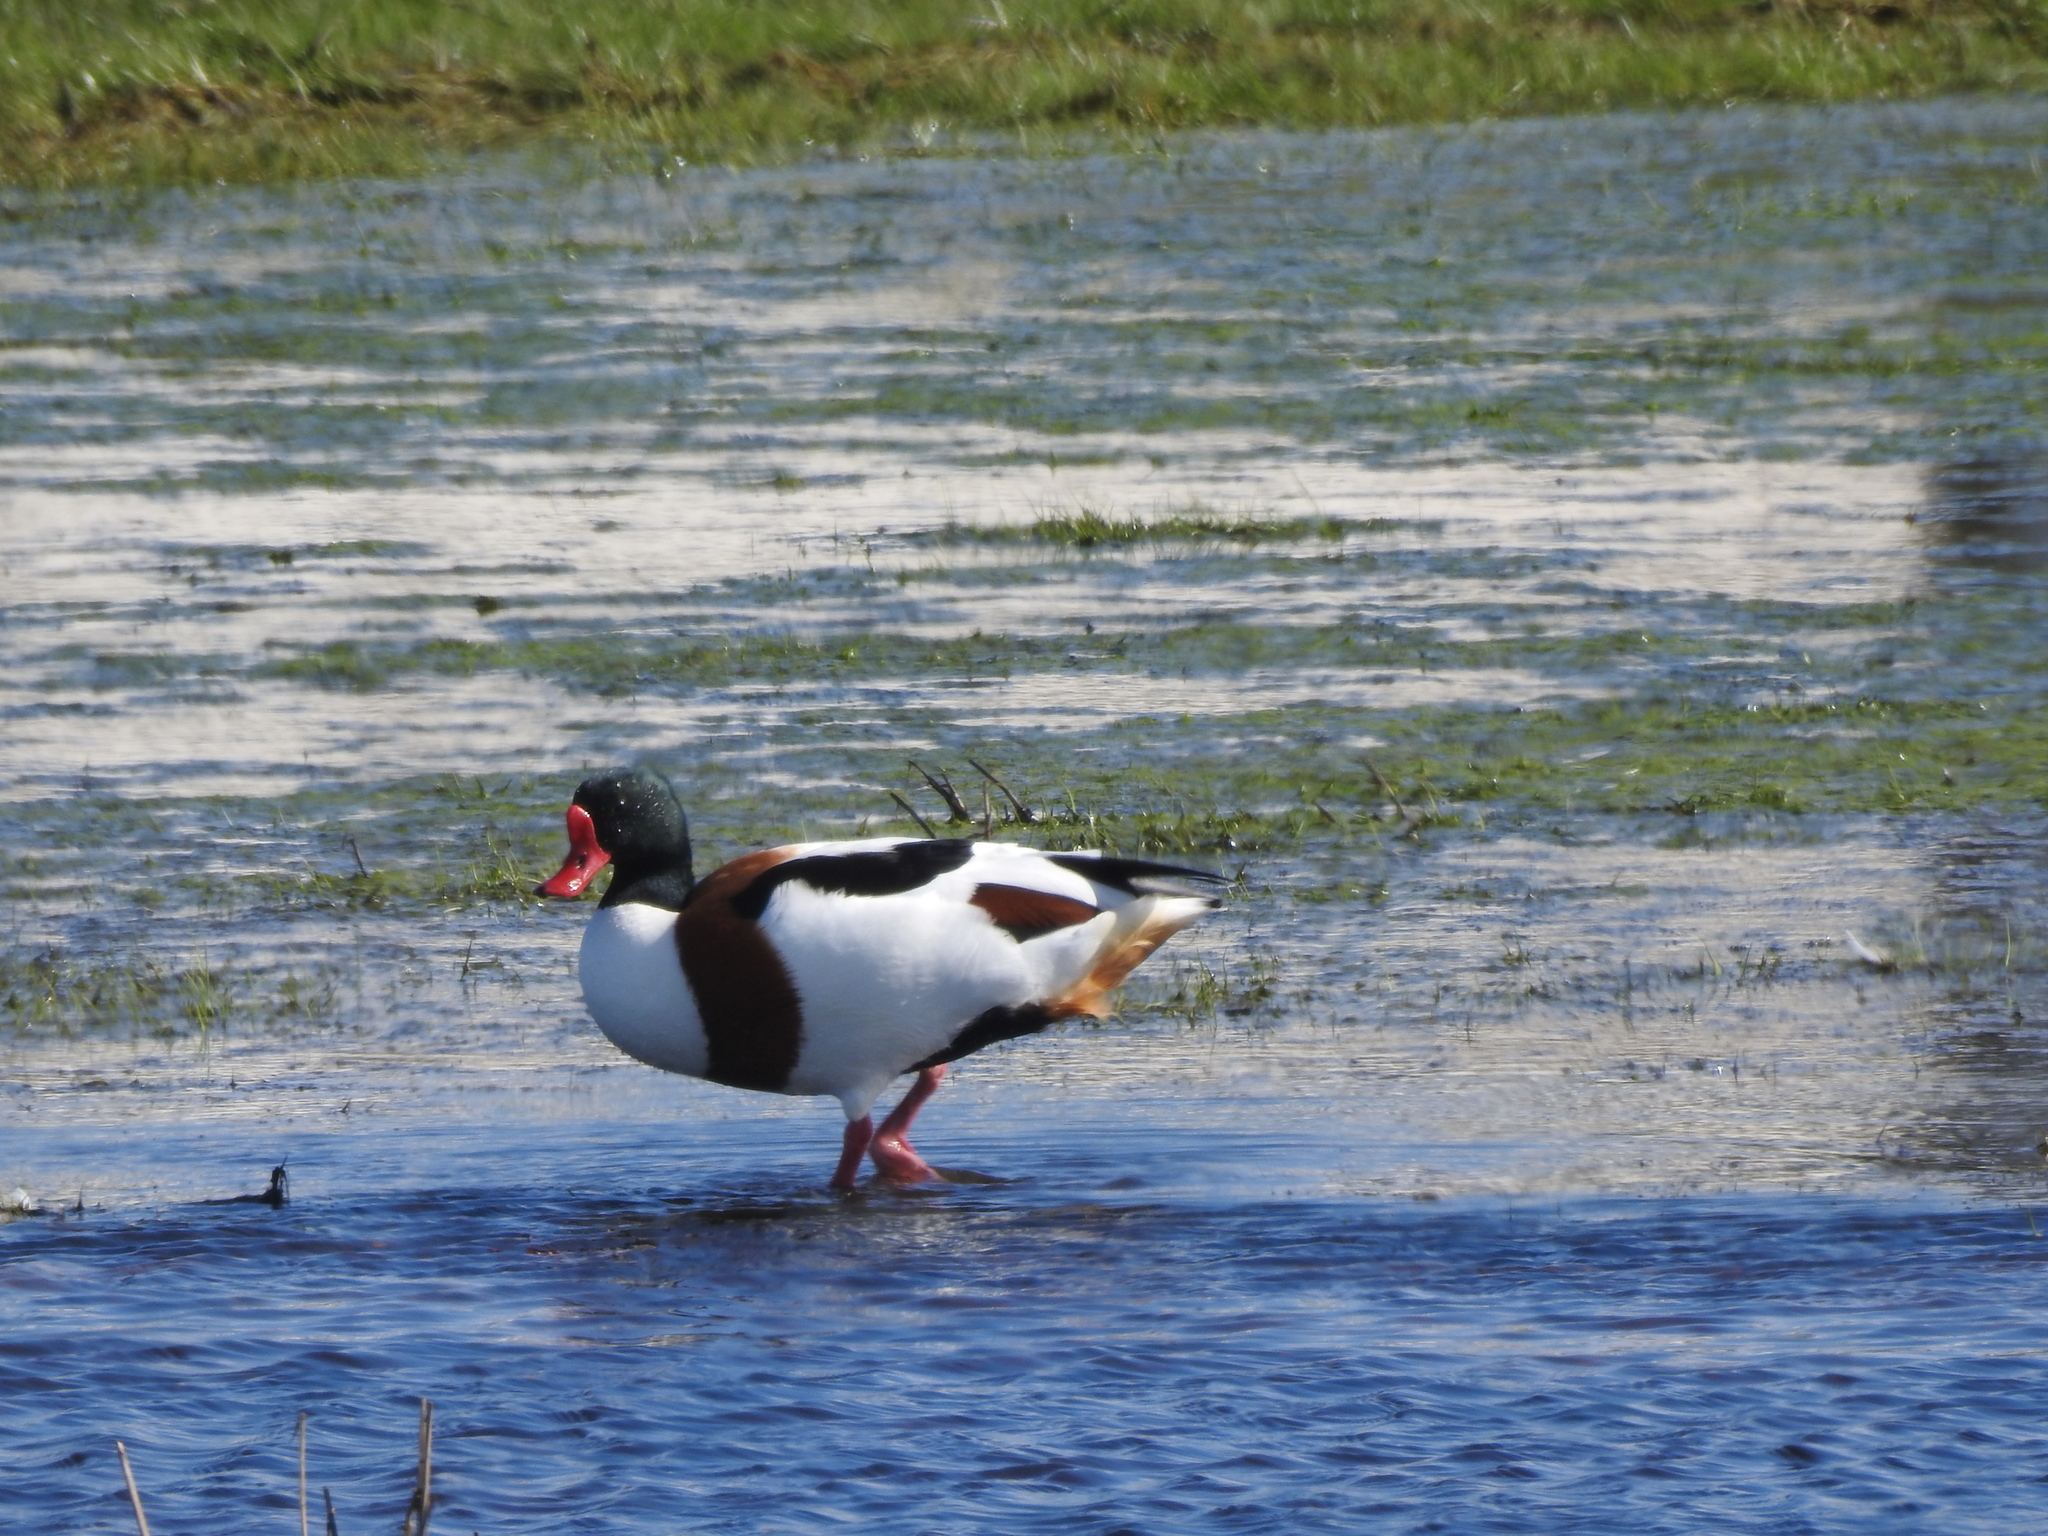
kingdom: Animalia
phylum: Chordata
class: Aves
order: Anseriformes
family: Anatidae
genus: Tadorna
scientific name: Tadorna tadorna
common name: Common shelduck
